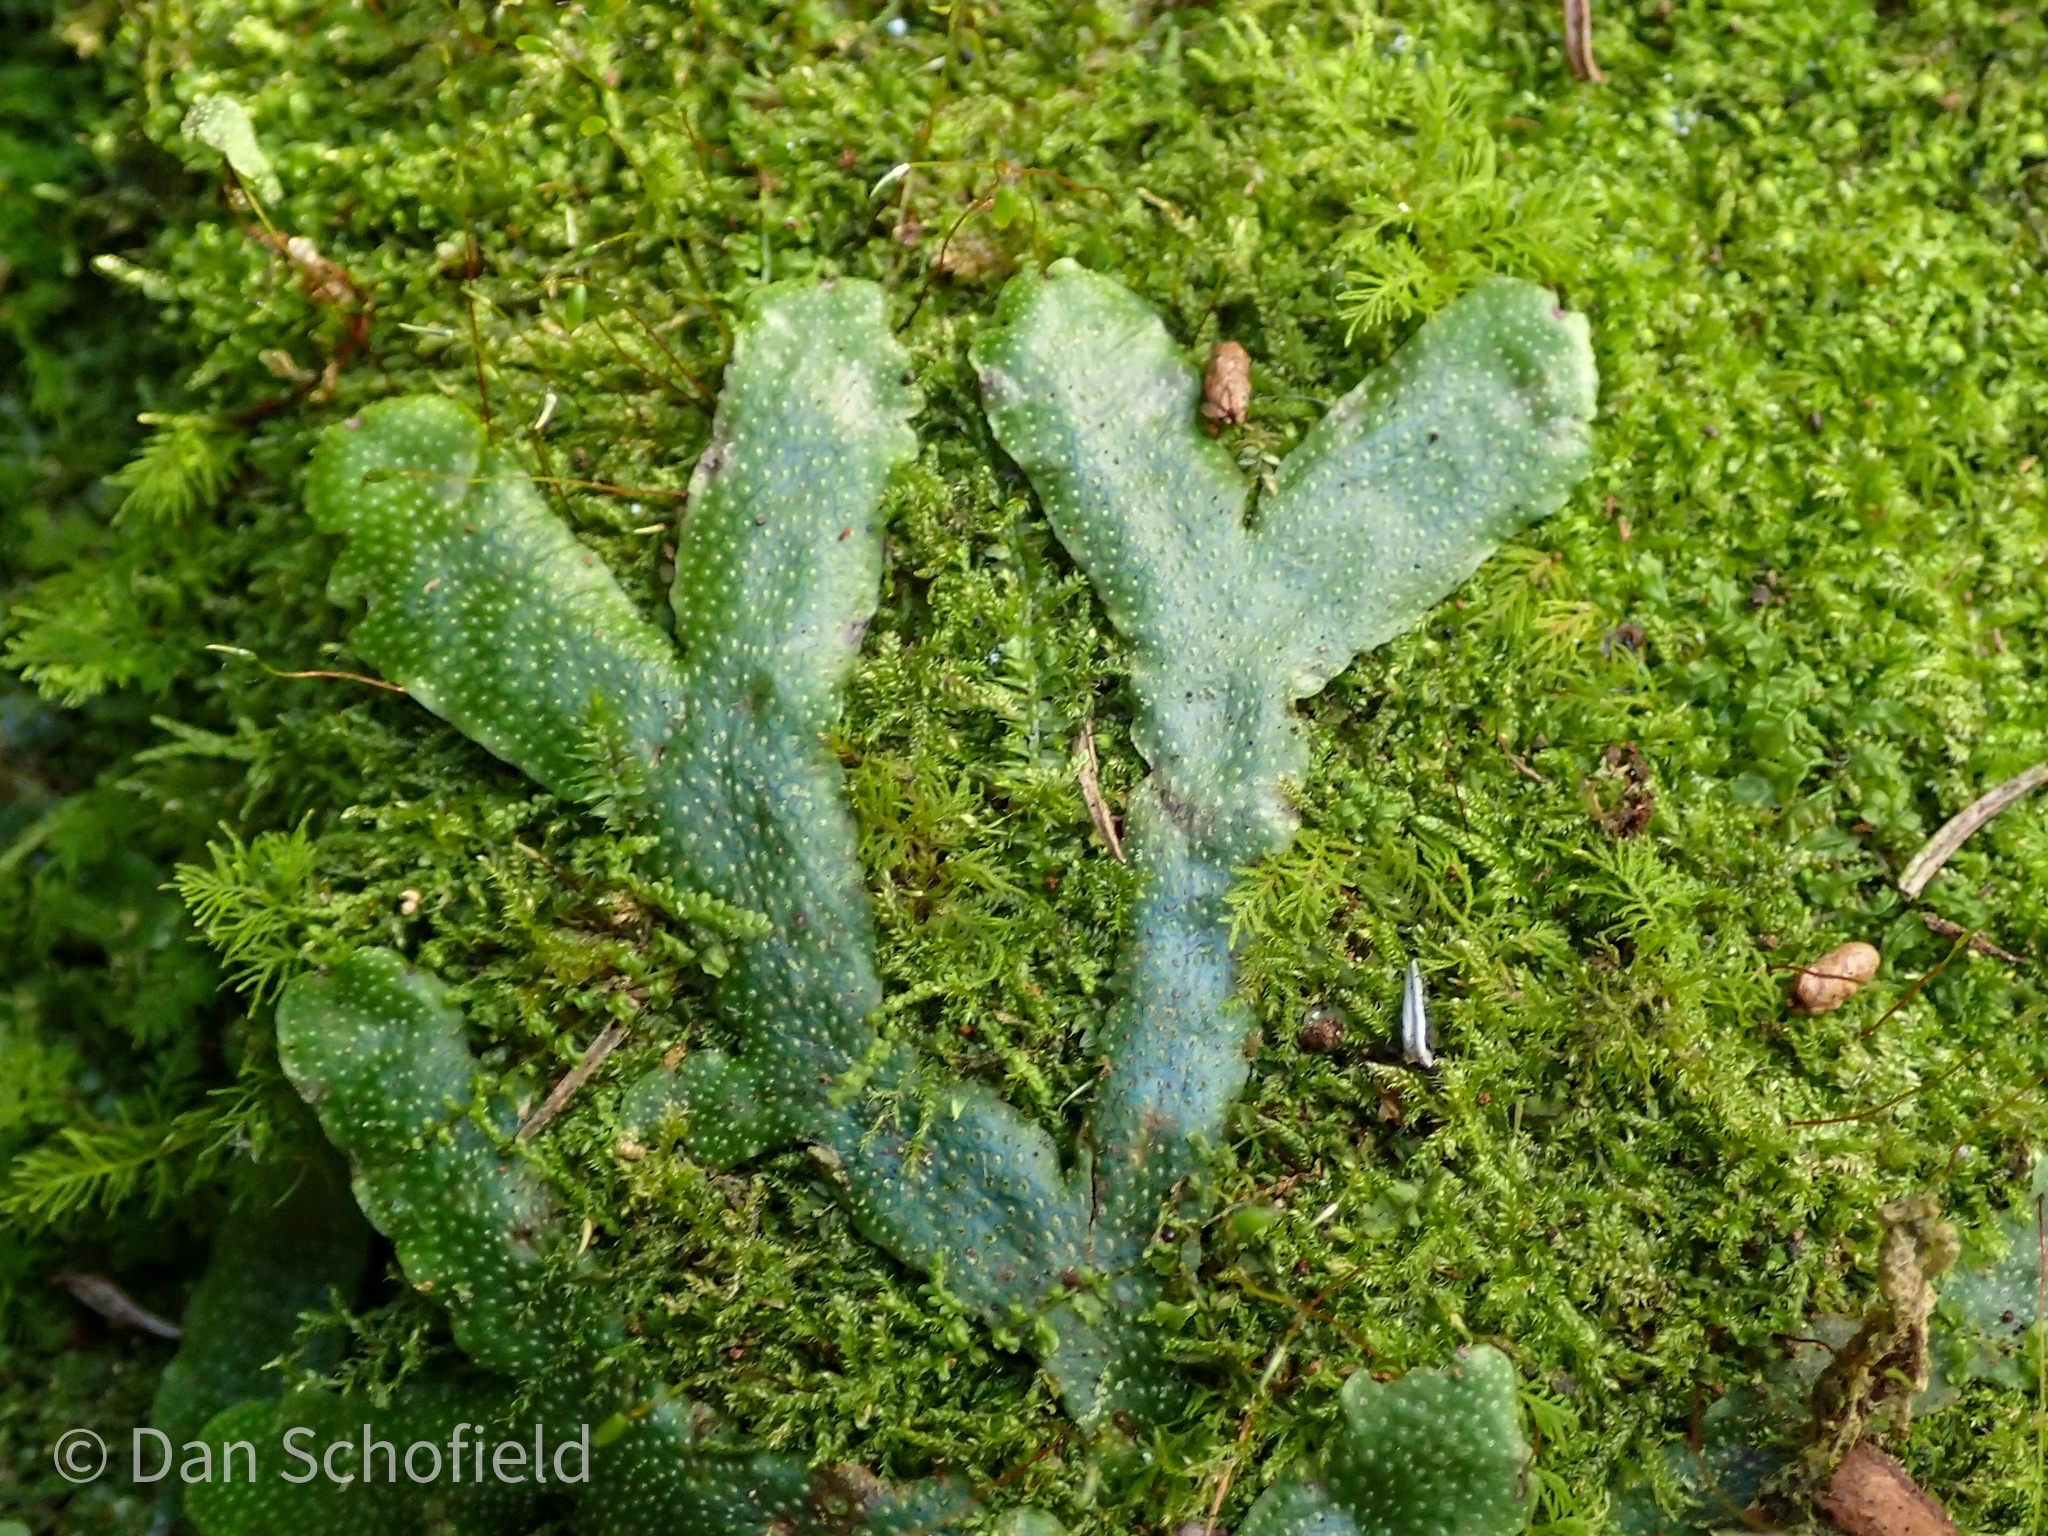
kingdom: Plantae
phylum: Marchantiophyta
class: Marchantiopsida
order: Marchantiales
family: Conocephalaceae
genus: Conocephalum
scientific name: Conocephalum conicum
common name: Great scented liverwort
